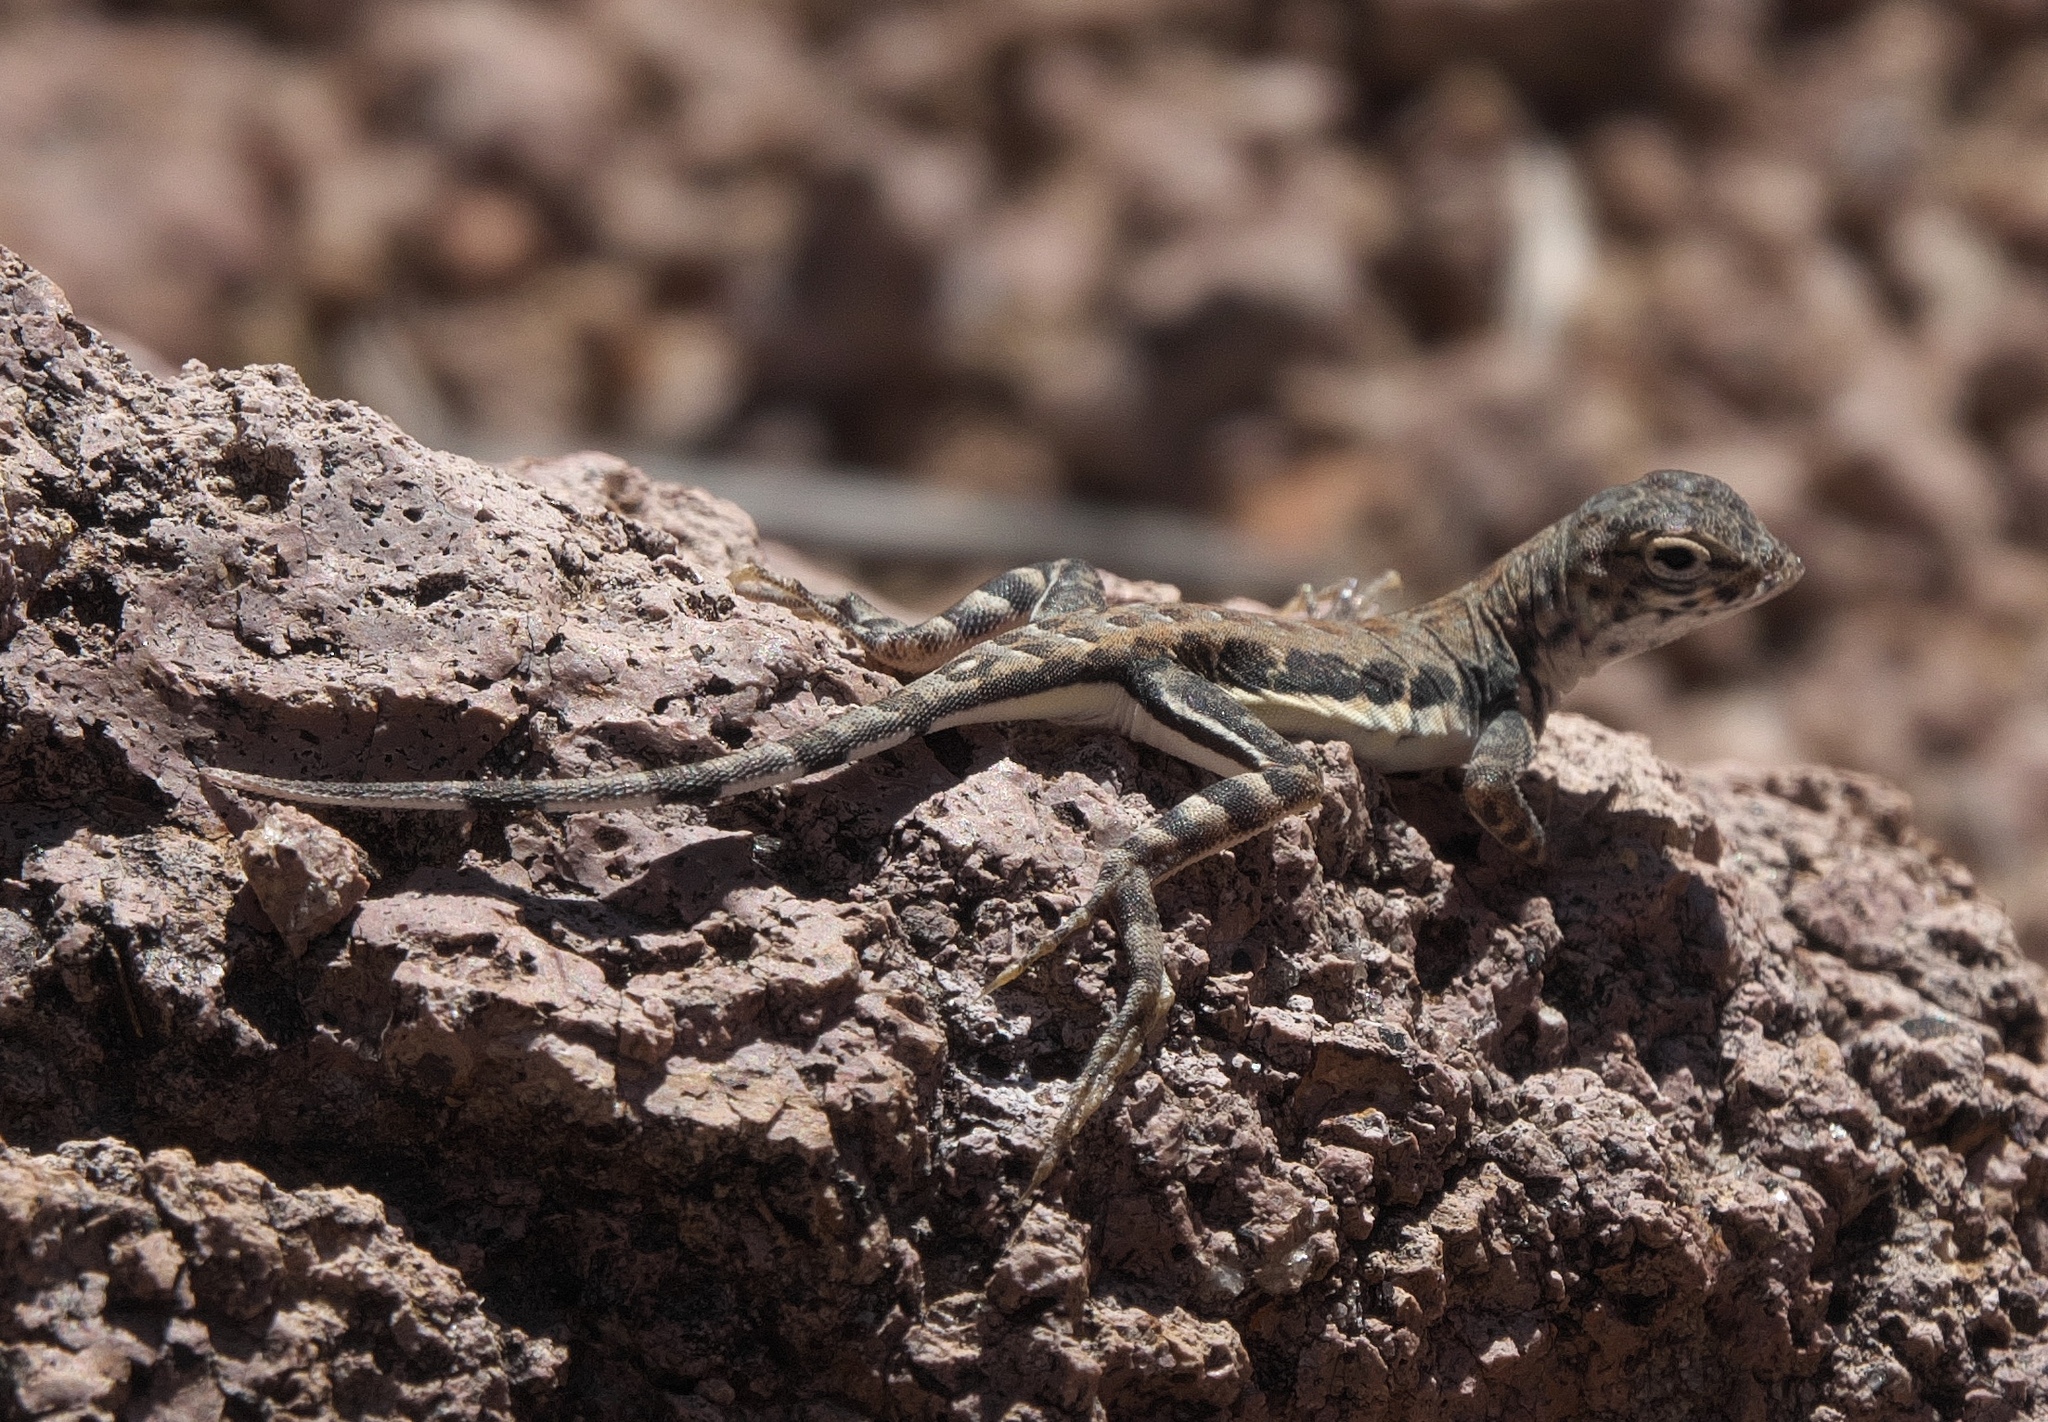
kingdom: Animalia
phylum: Chordata
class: Squamata
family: Phrynosomatidae
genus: Callisaurus
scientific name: Callisaurus draconoides
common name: Zebra-tailed lizard
